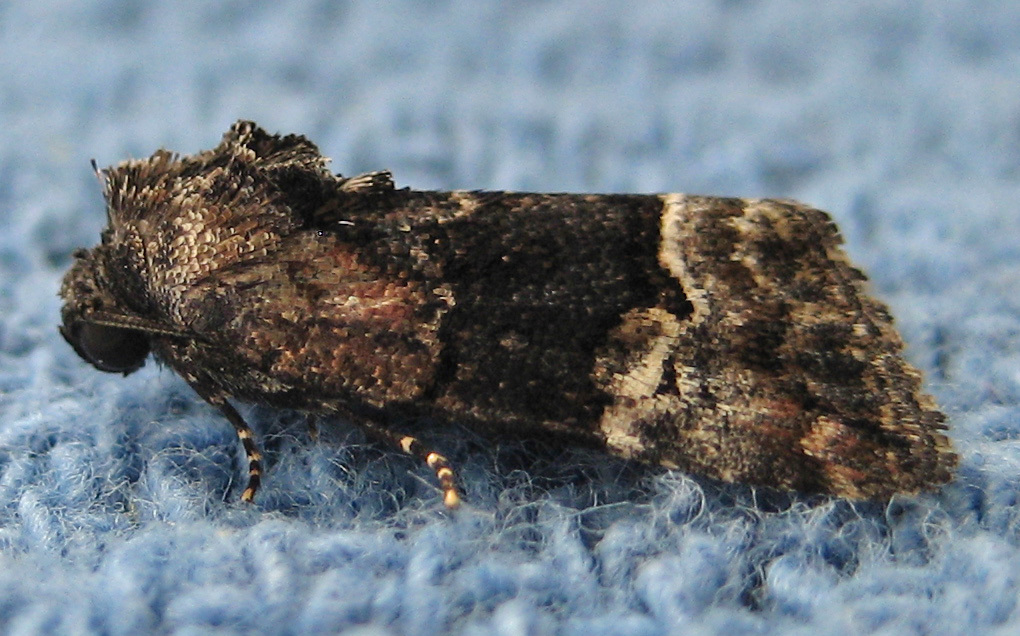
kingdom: Animalia
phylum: Arthropoda
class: Insecta
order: Lepidoptera
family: Noctuidae
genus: Elaphria
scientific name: Elaphria georgei
